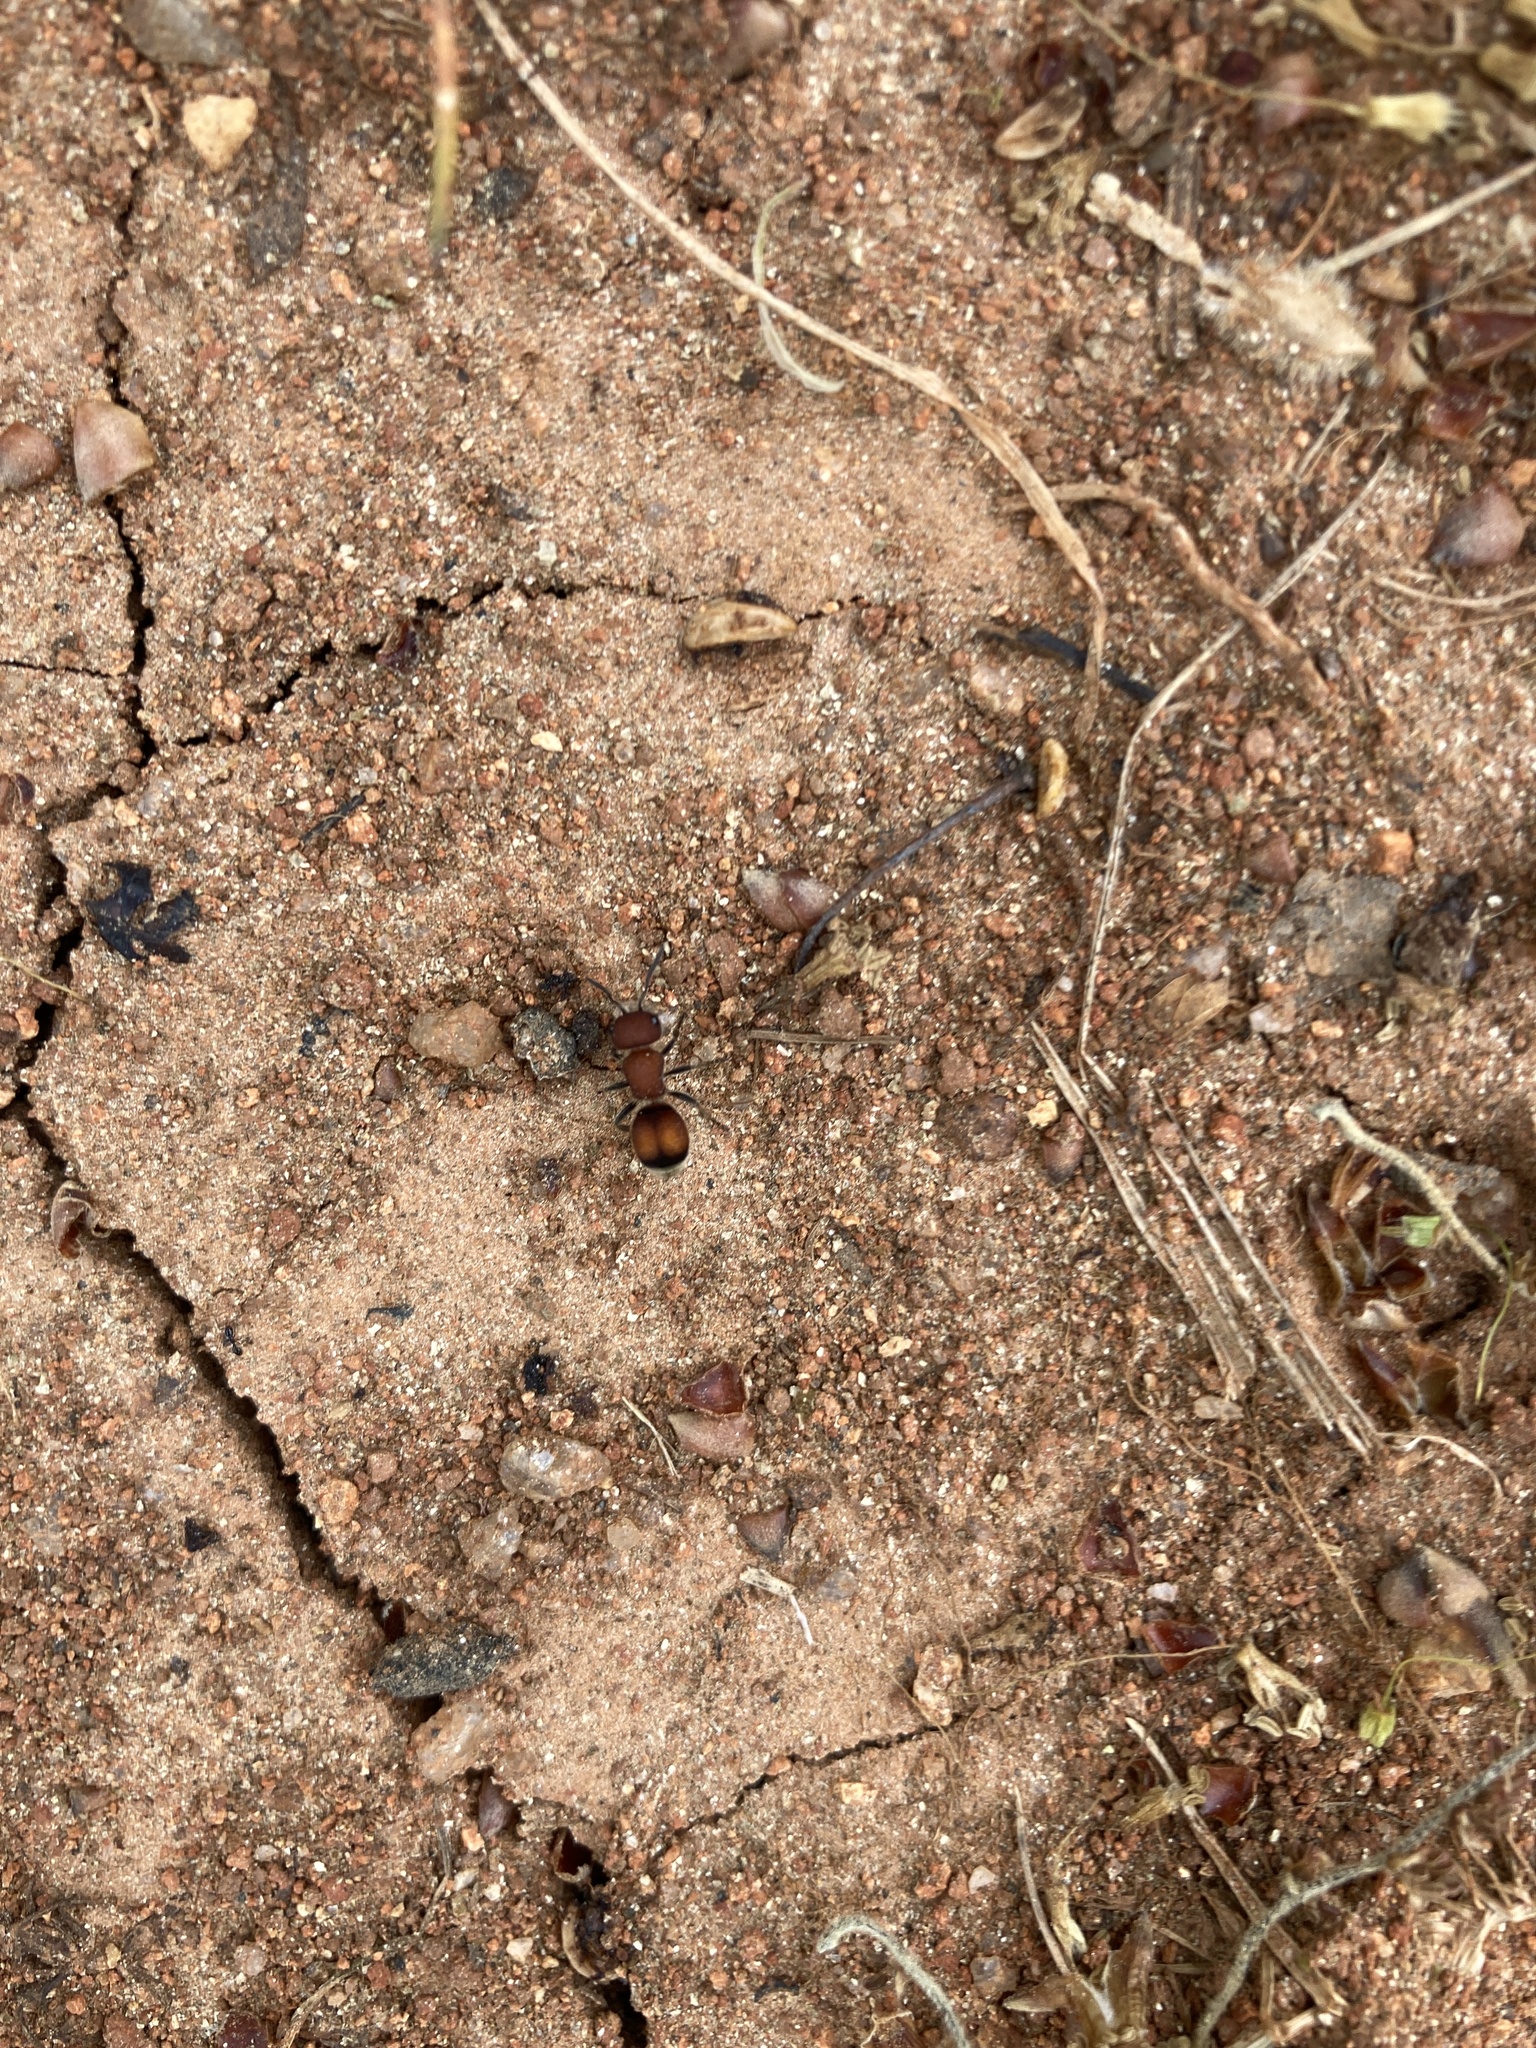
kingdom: Animalia
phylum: Arthropoda
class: Insecta
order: Hymenoptera
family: Mutillidae
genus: Pseudomethoca
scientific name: Pseudomethoca
